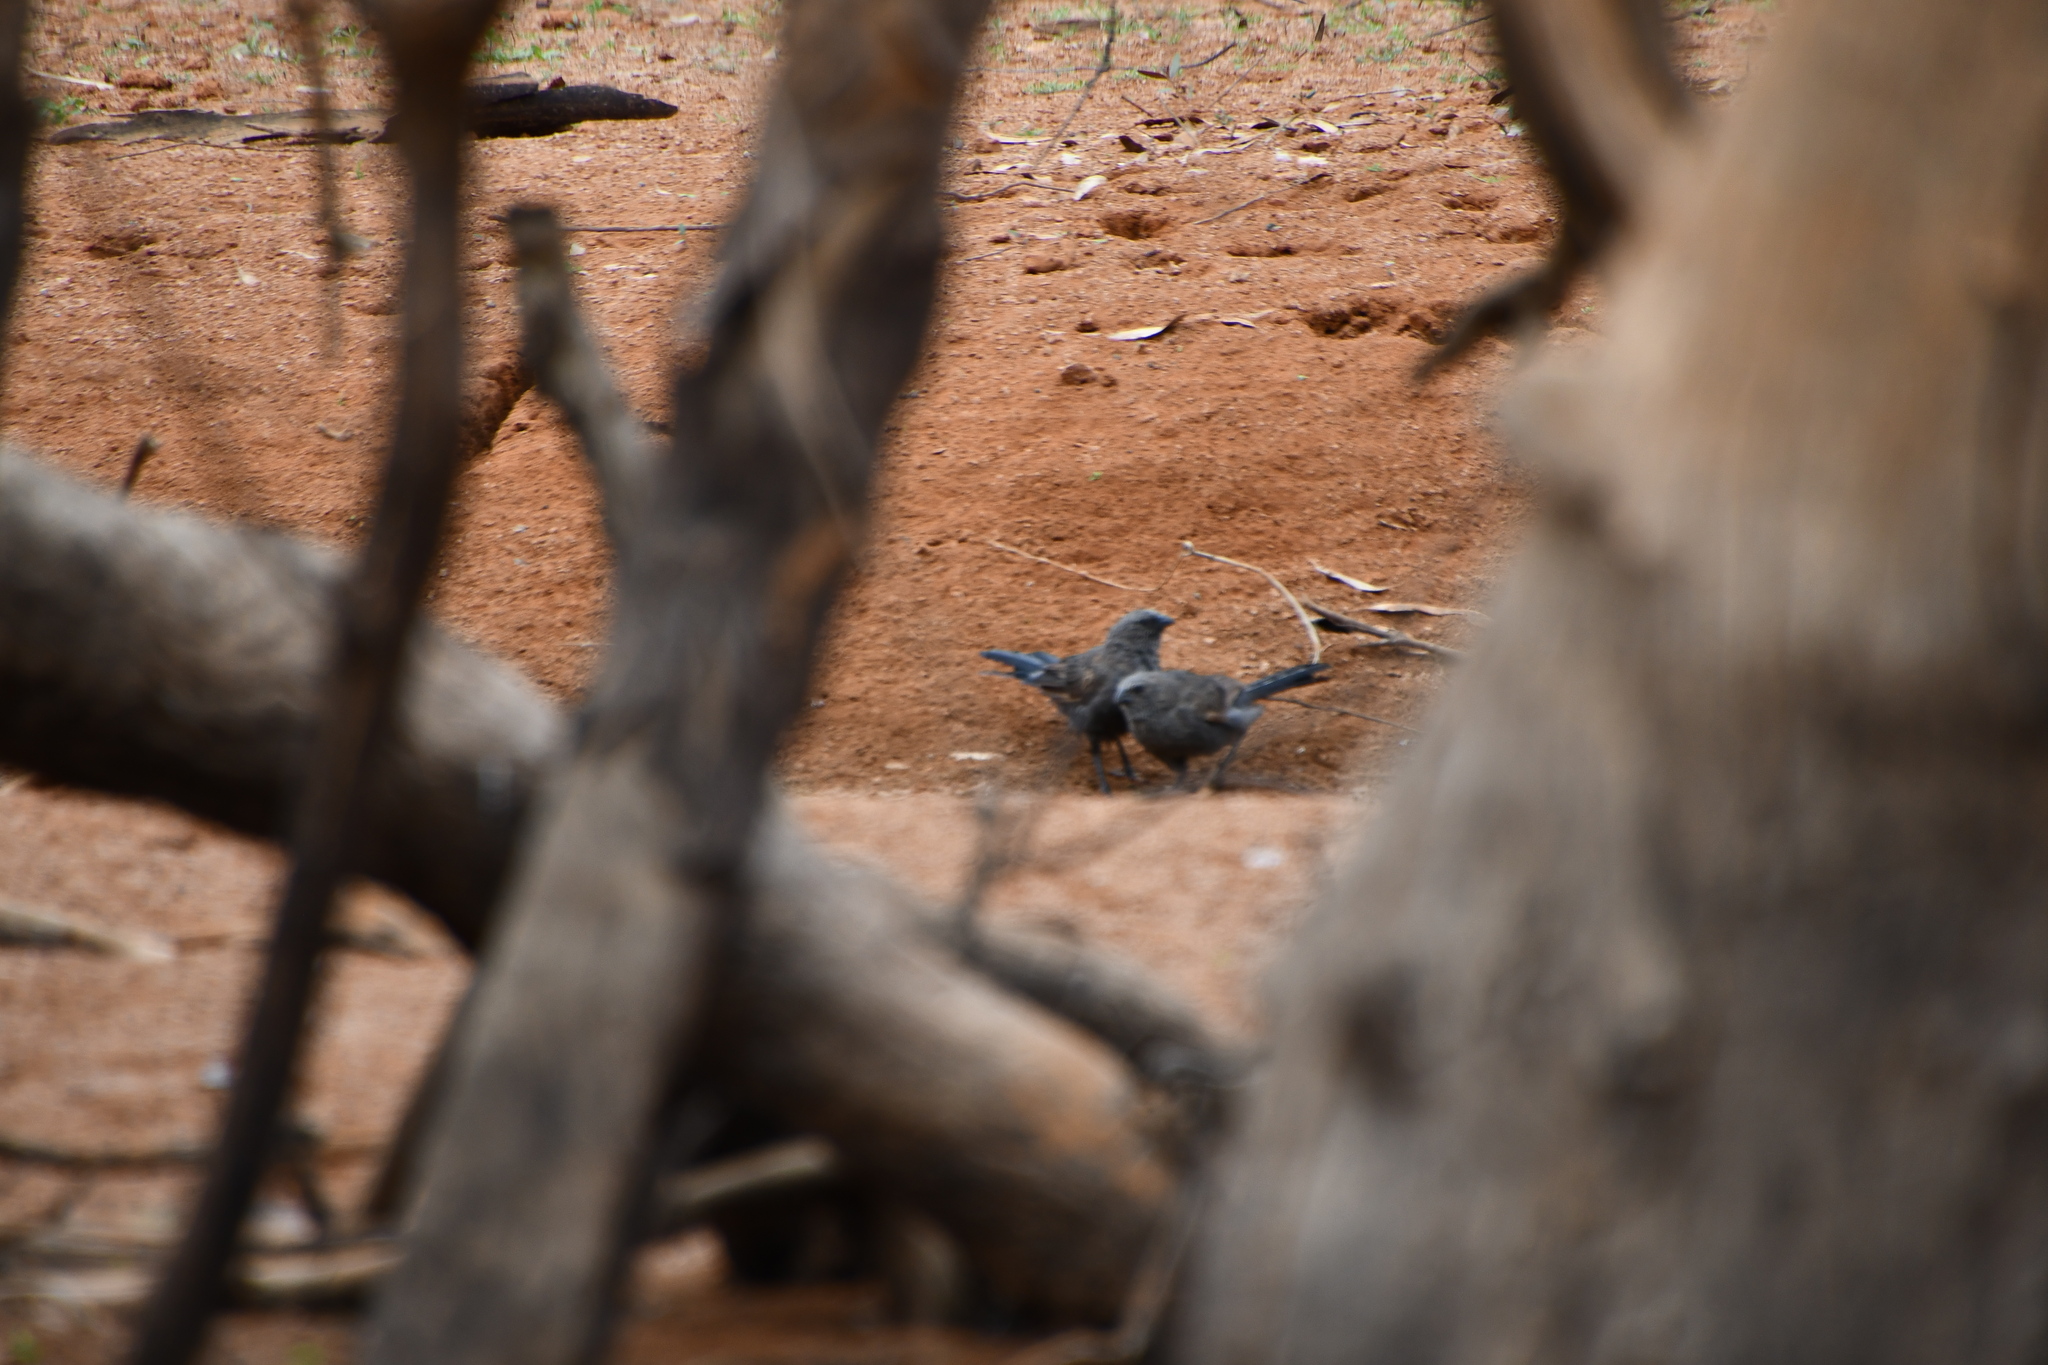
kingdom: Animalia
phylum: Chordata
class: Aves
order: Passeriformes
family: Corcoracidae
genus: Struthidea
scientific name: Struthidea cinerea
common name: Apostlebird
